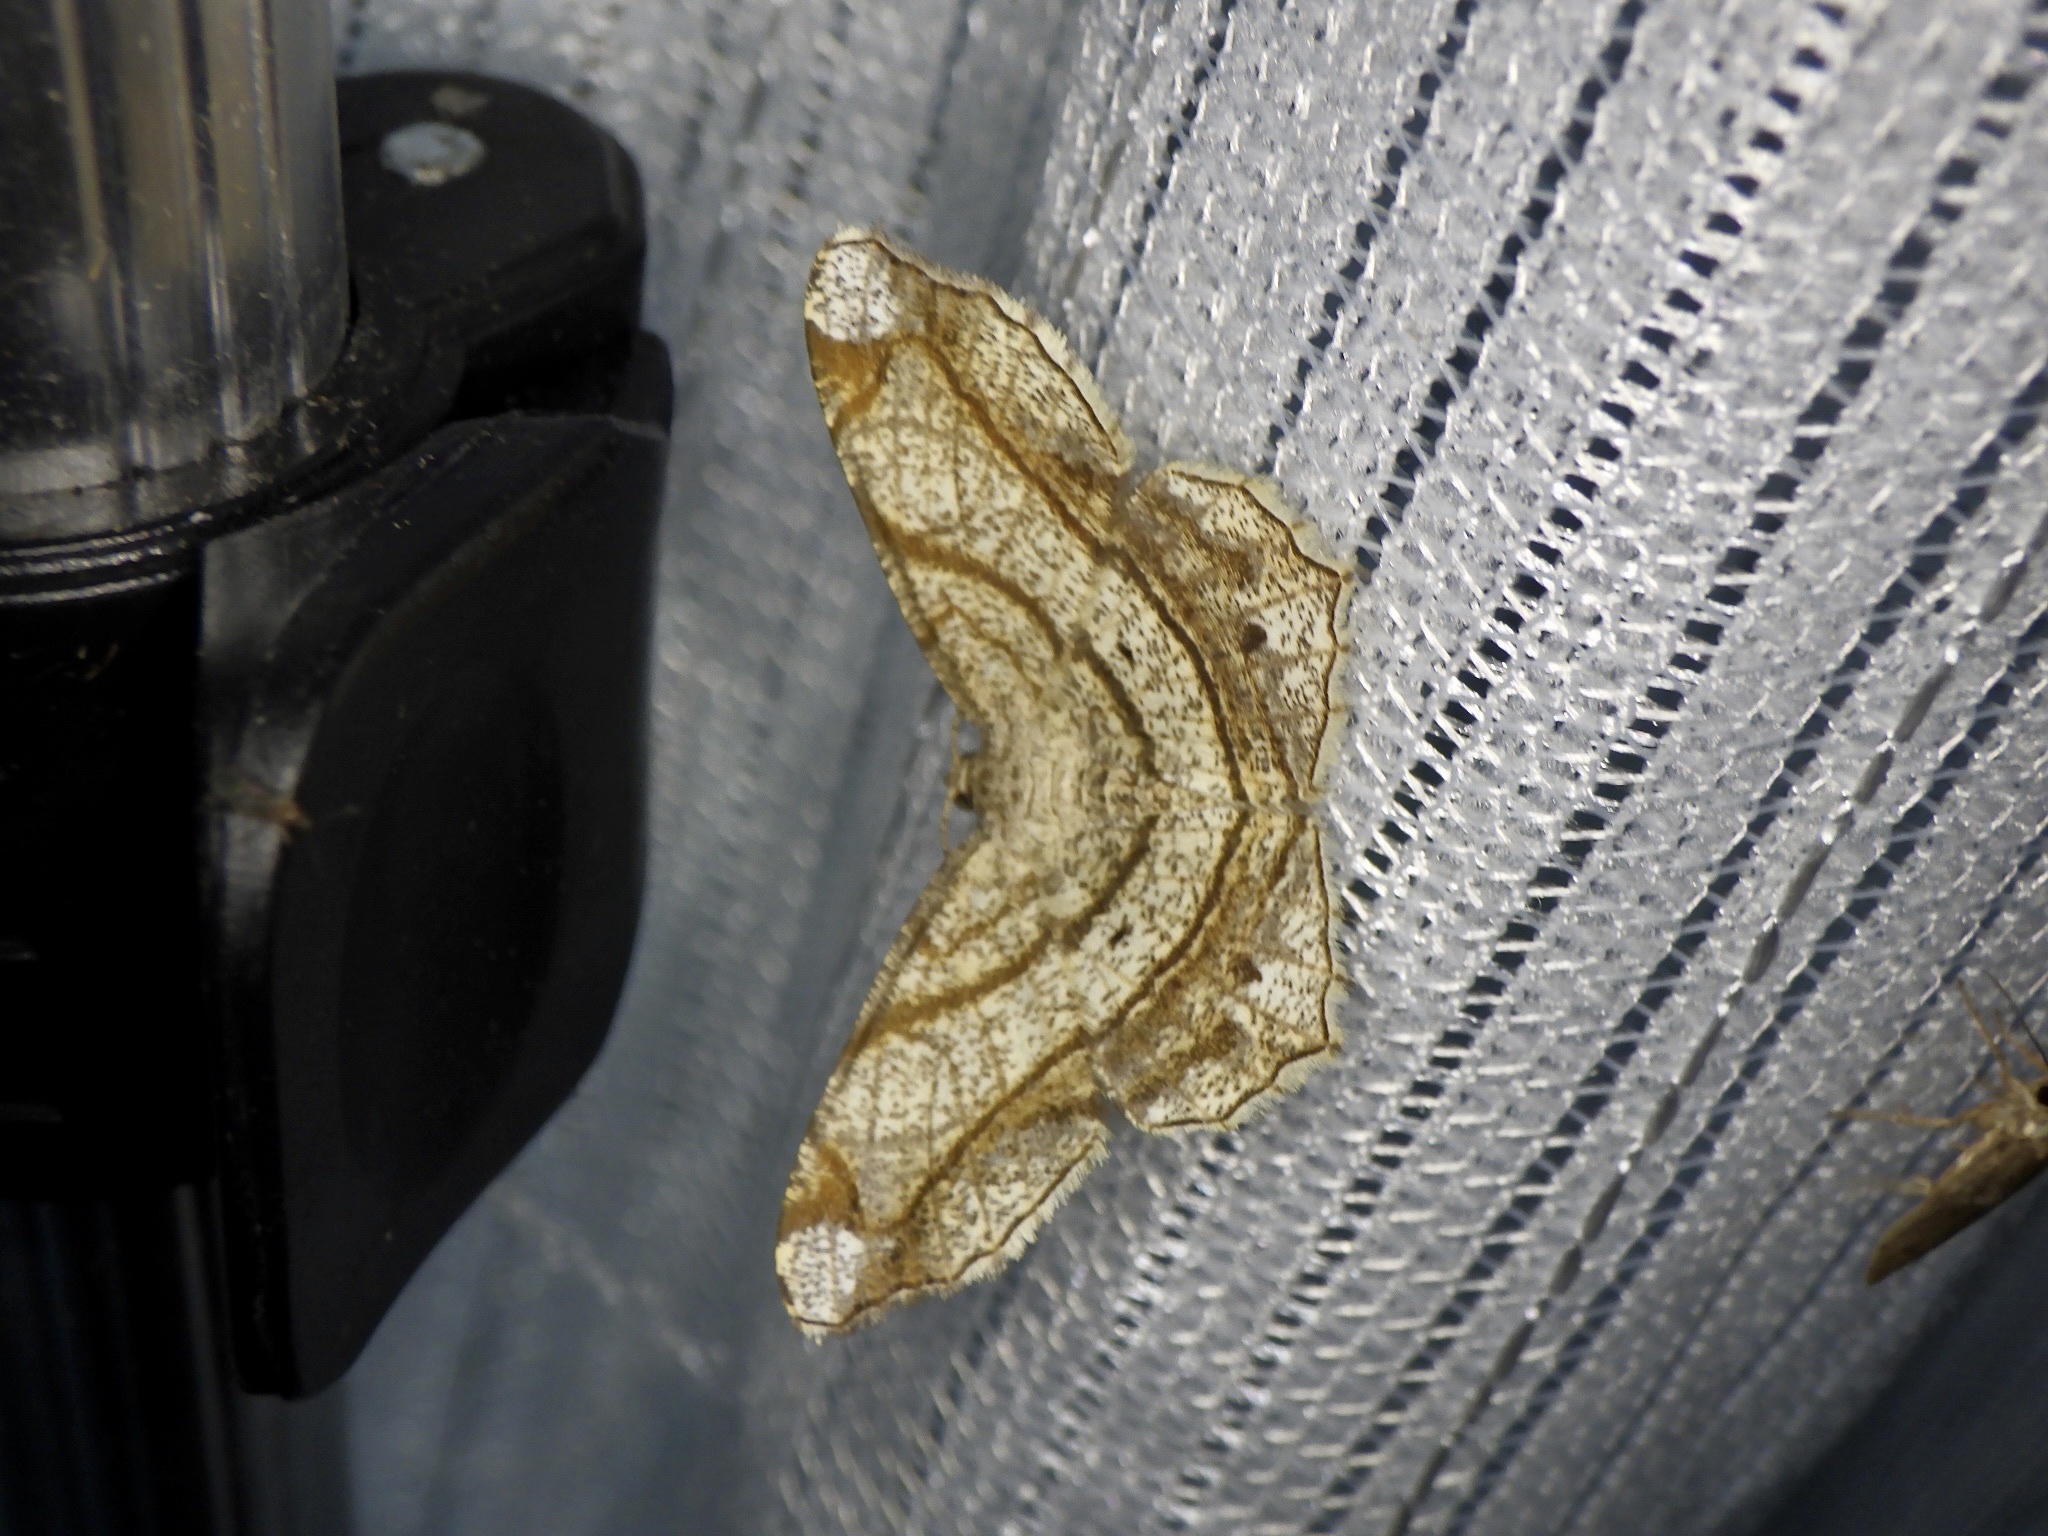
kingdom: Animalia
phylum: Arthropoda
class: Insecta
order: Lepidoptera
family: Geometridae
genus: Chiasmia
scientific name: Chiasmia defixaria
